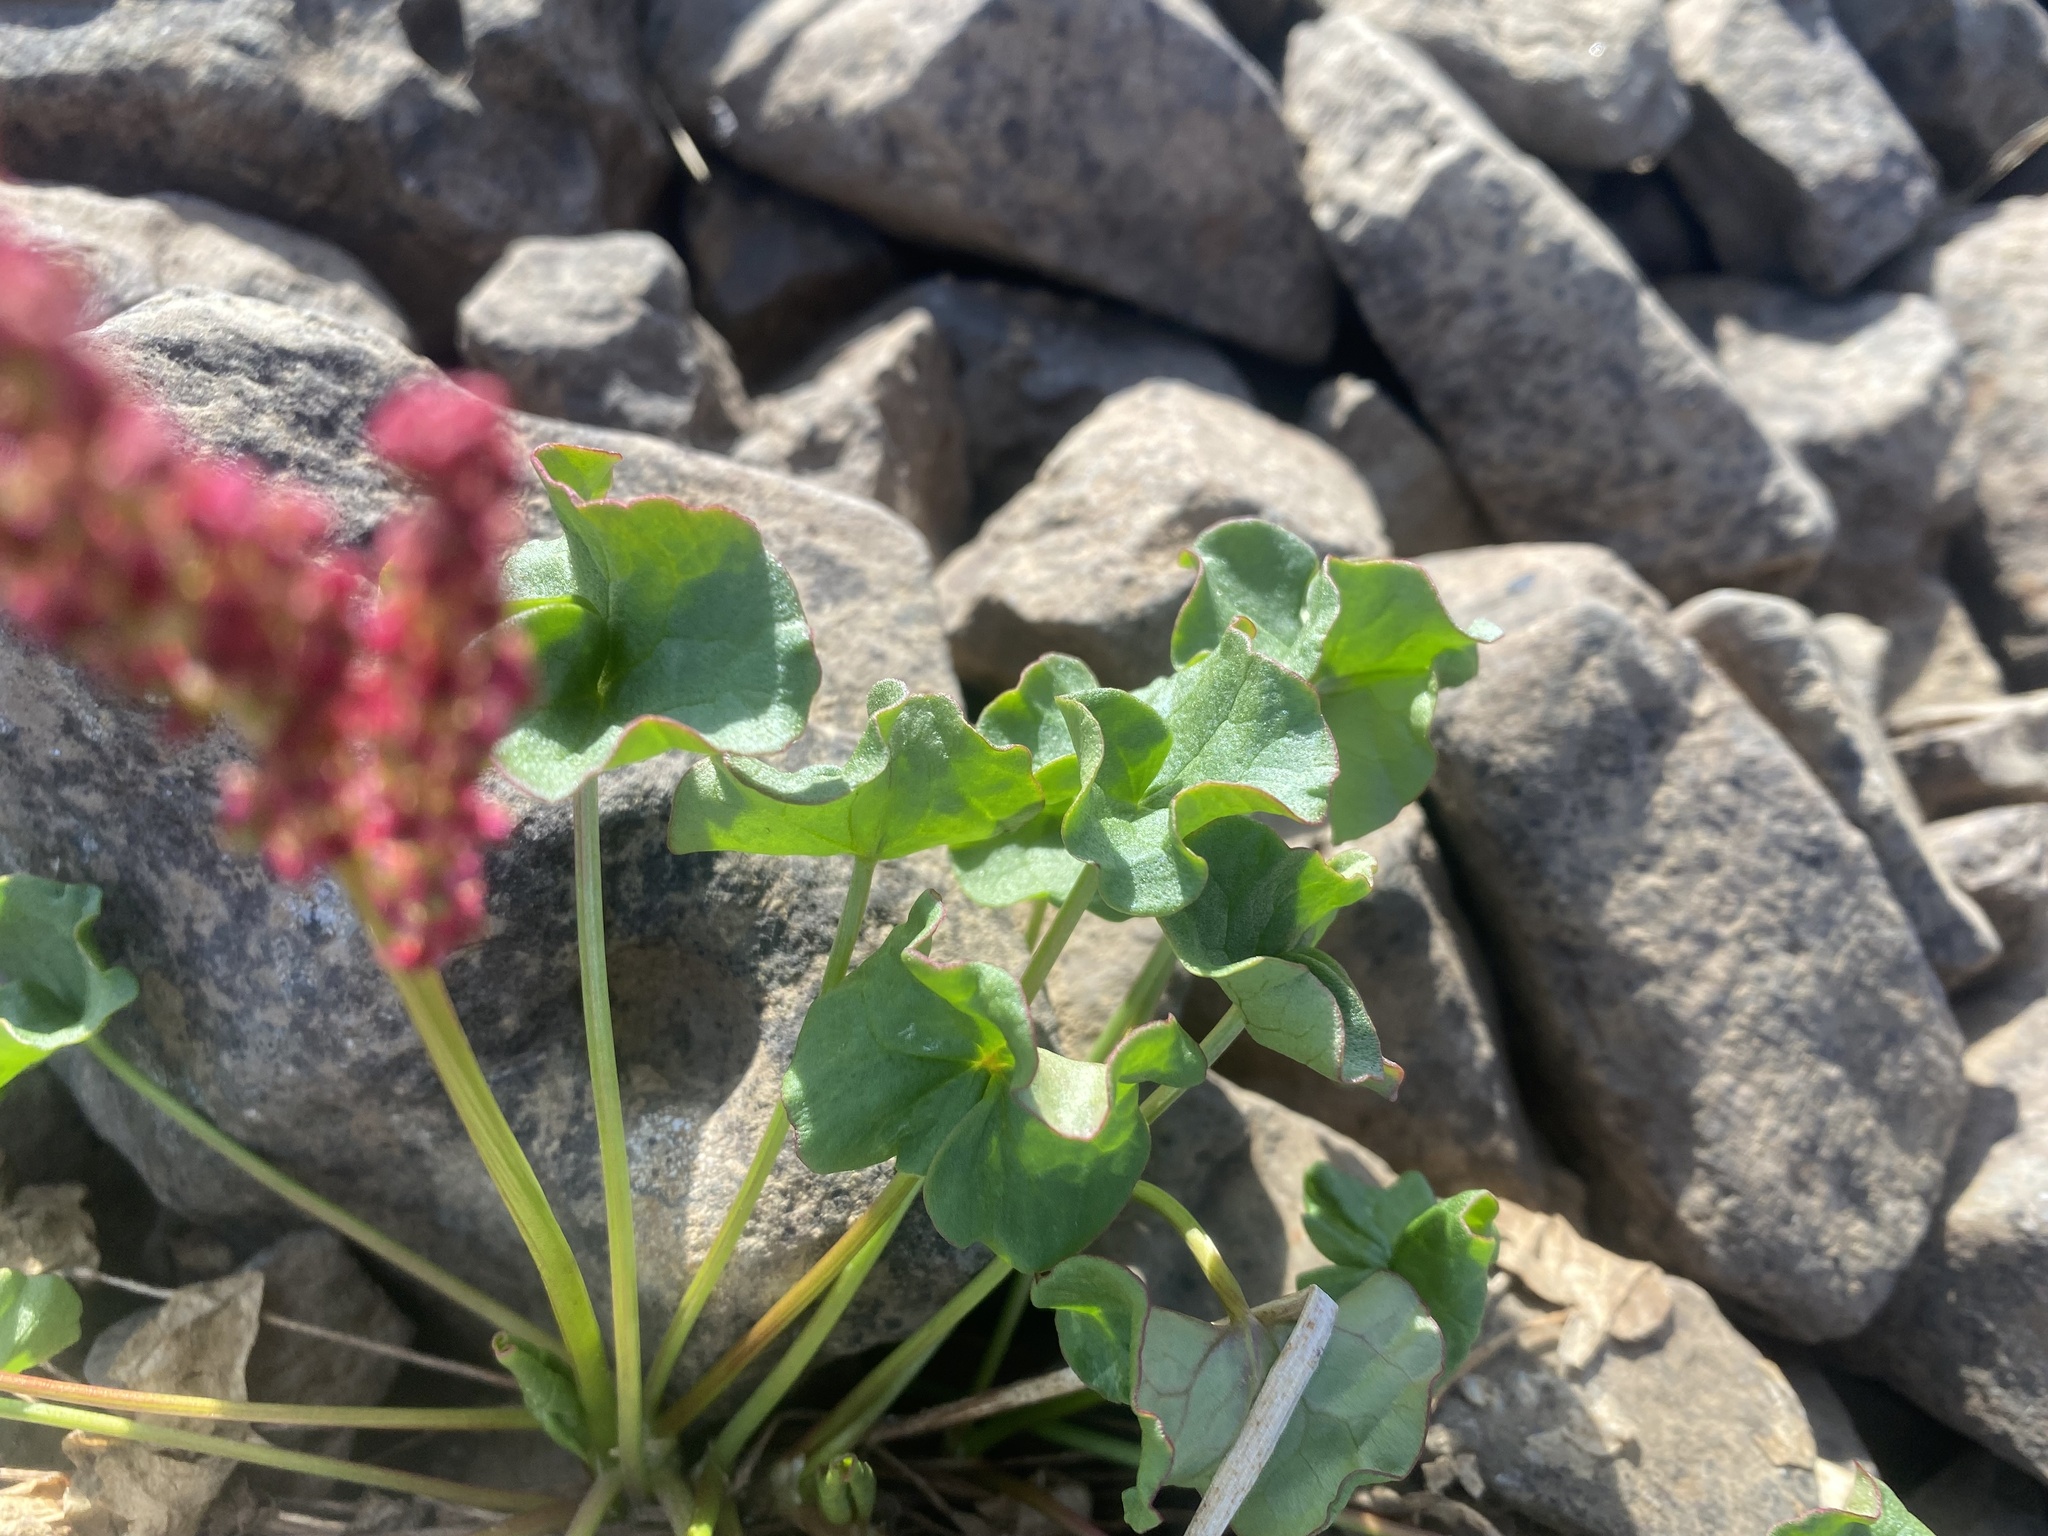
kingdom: Plantae
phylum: Tracheophyta
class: Magnoliopsida
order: Caryophyllales
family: Polygonaceae
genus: Oxyria
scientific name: Oxyria digyna
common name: Alpine mountain-sorrel
